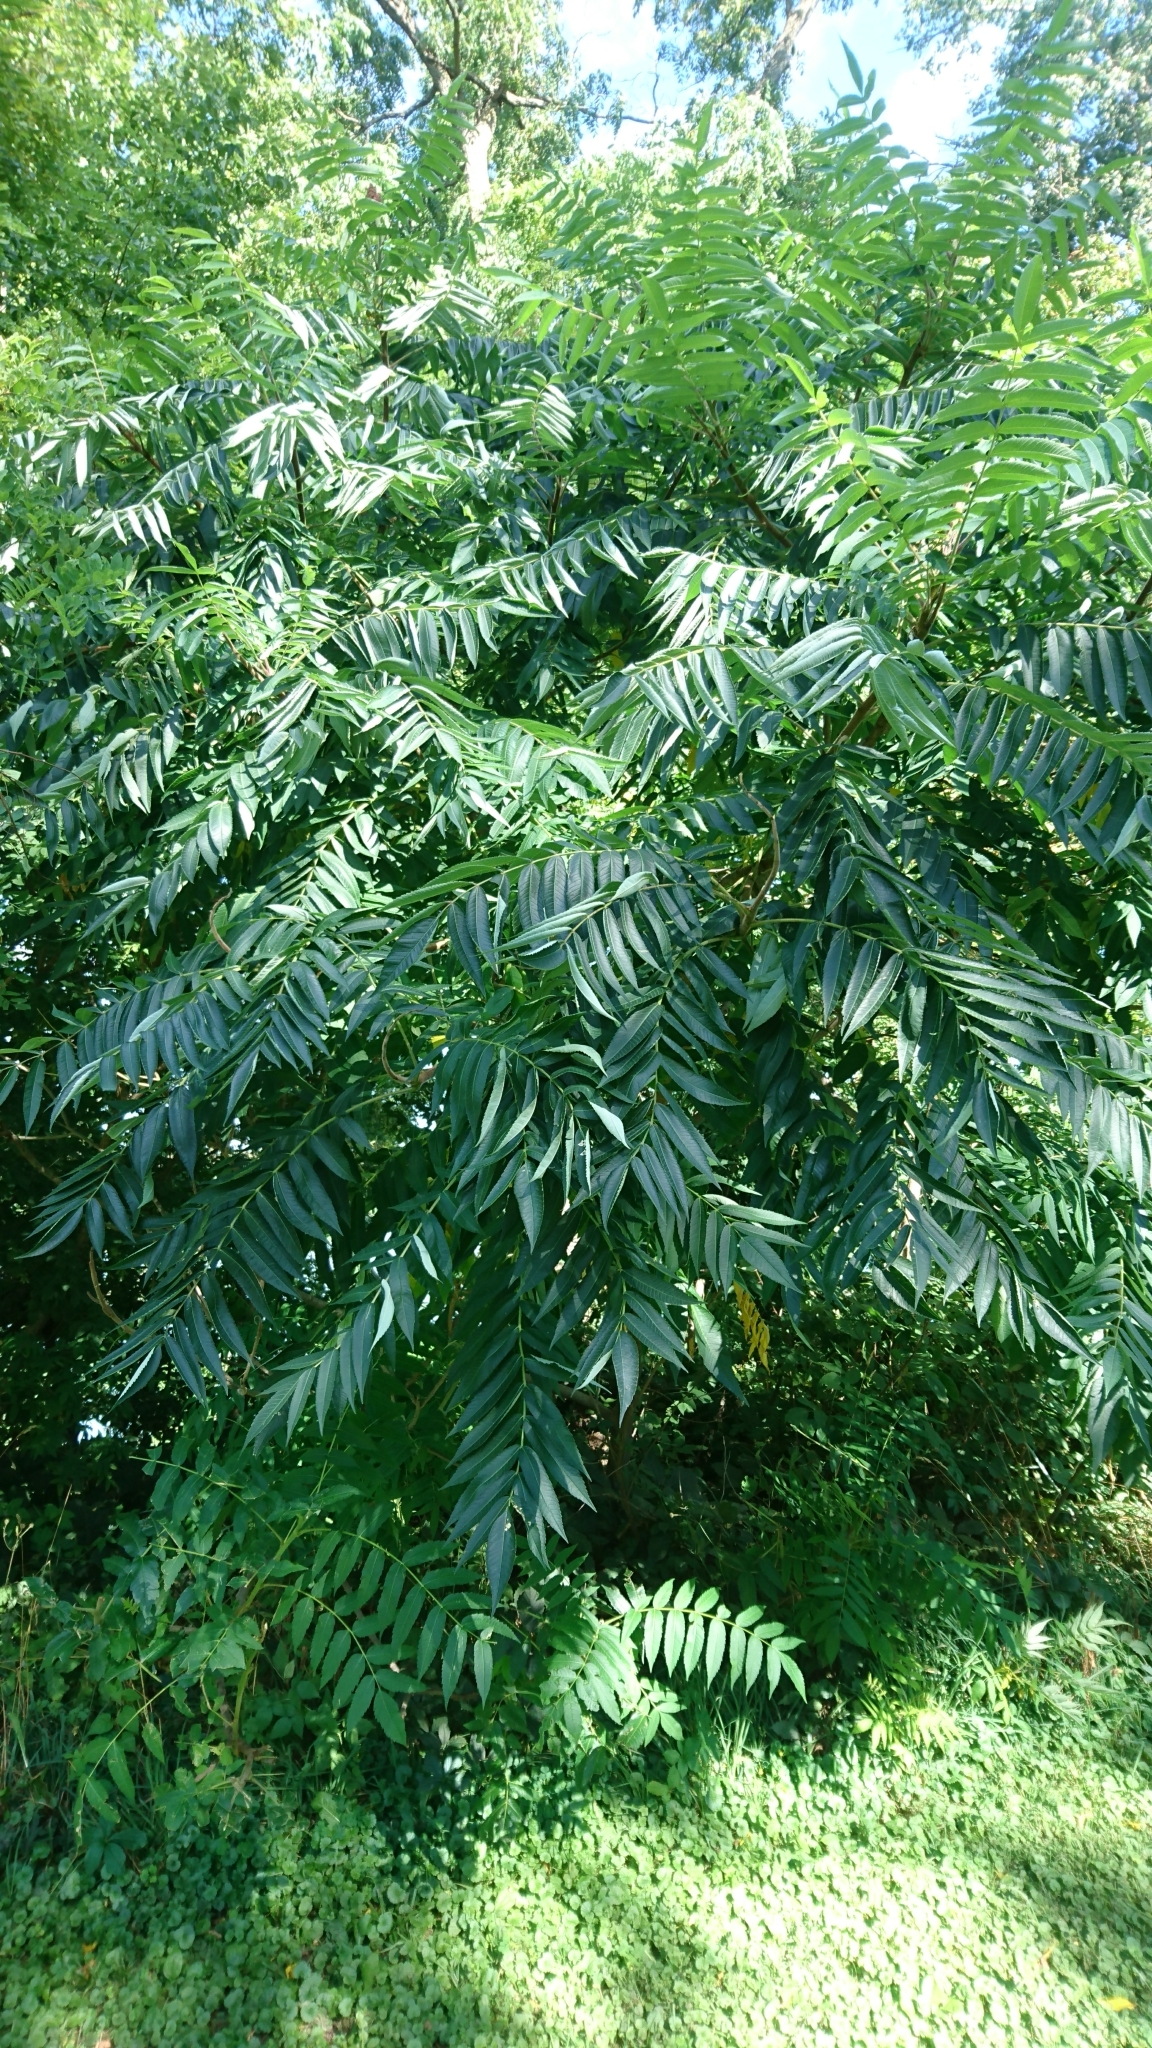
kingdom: Plantae
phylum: Tracheophyta
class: Magnoliopsida
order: Sapindales
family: Anacardiaceae
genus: Rhus
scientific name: Rhus typhina
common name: Staghorn sumac
